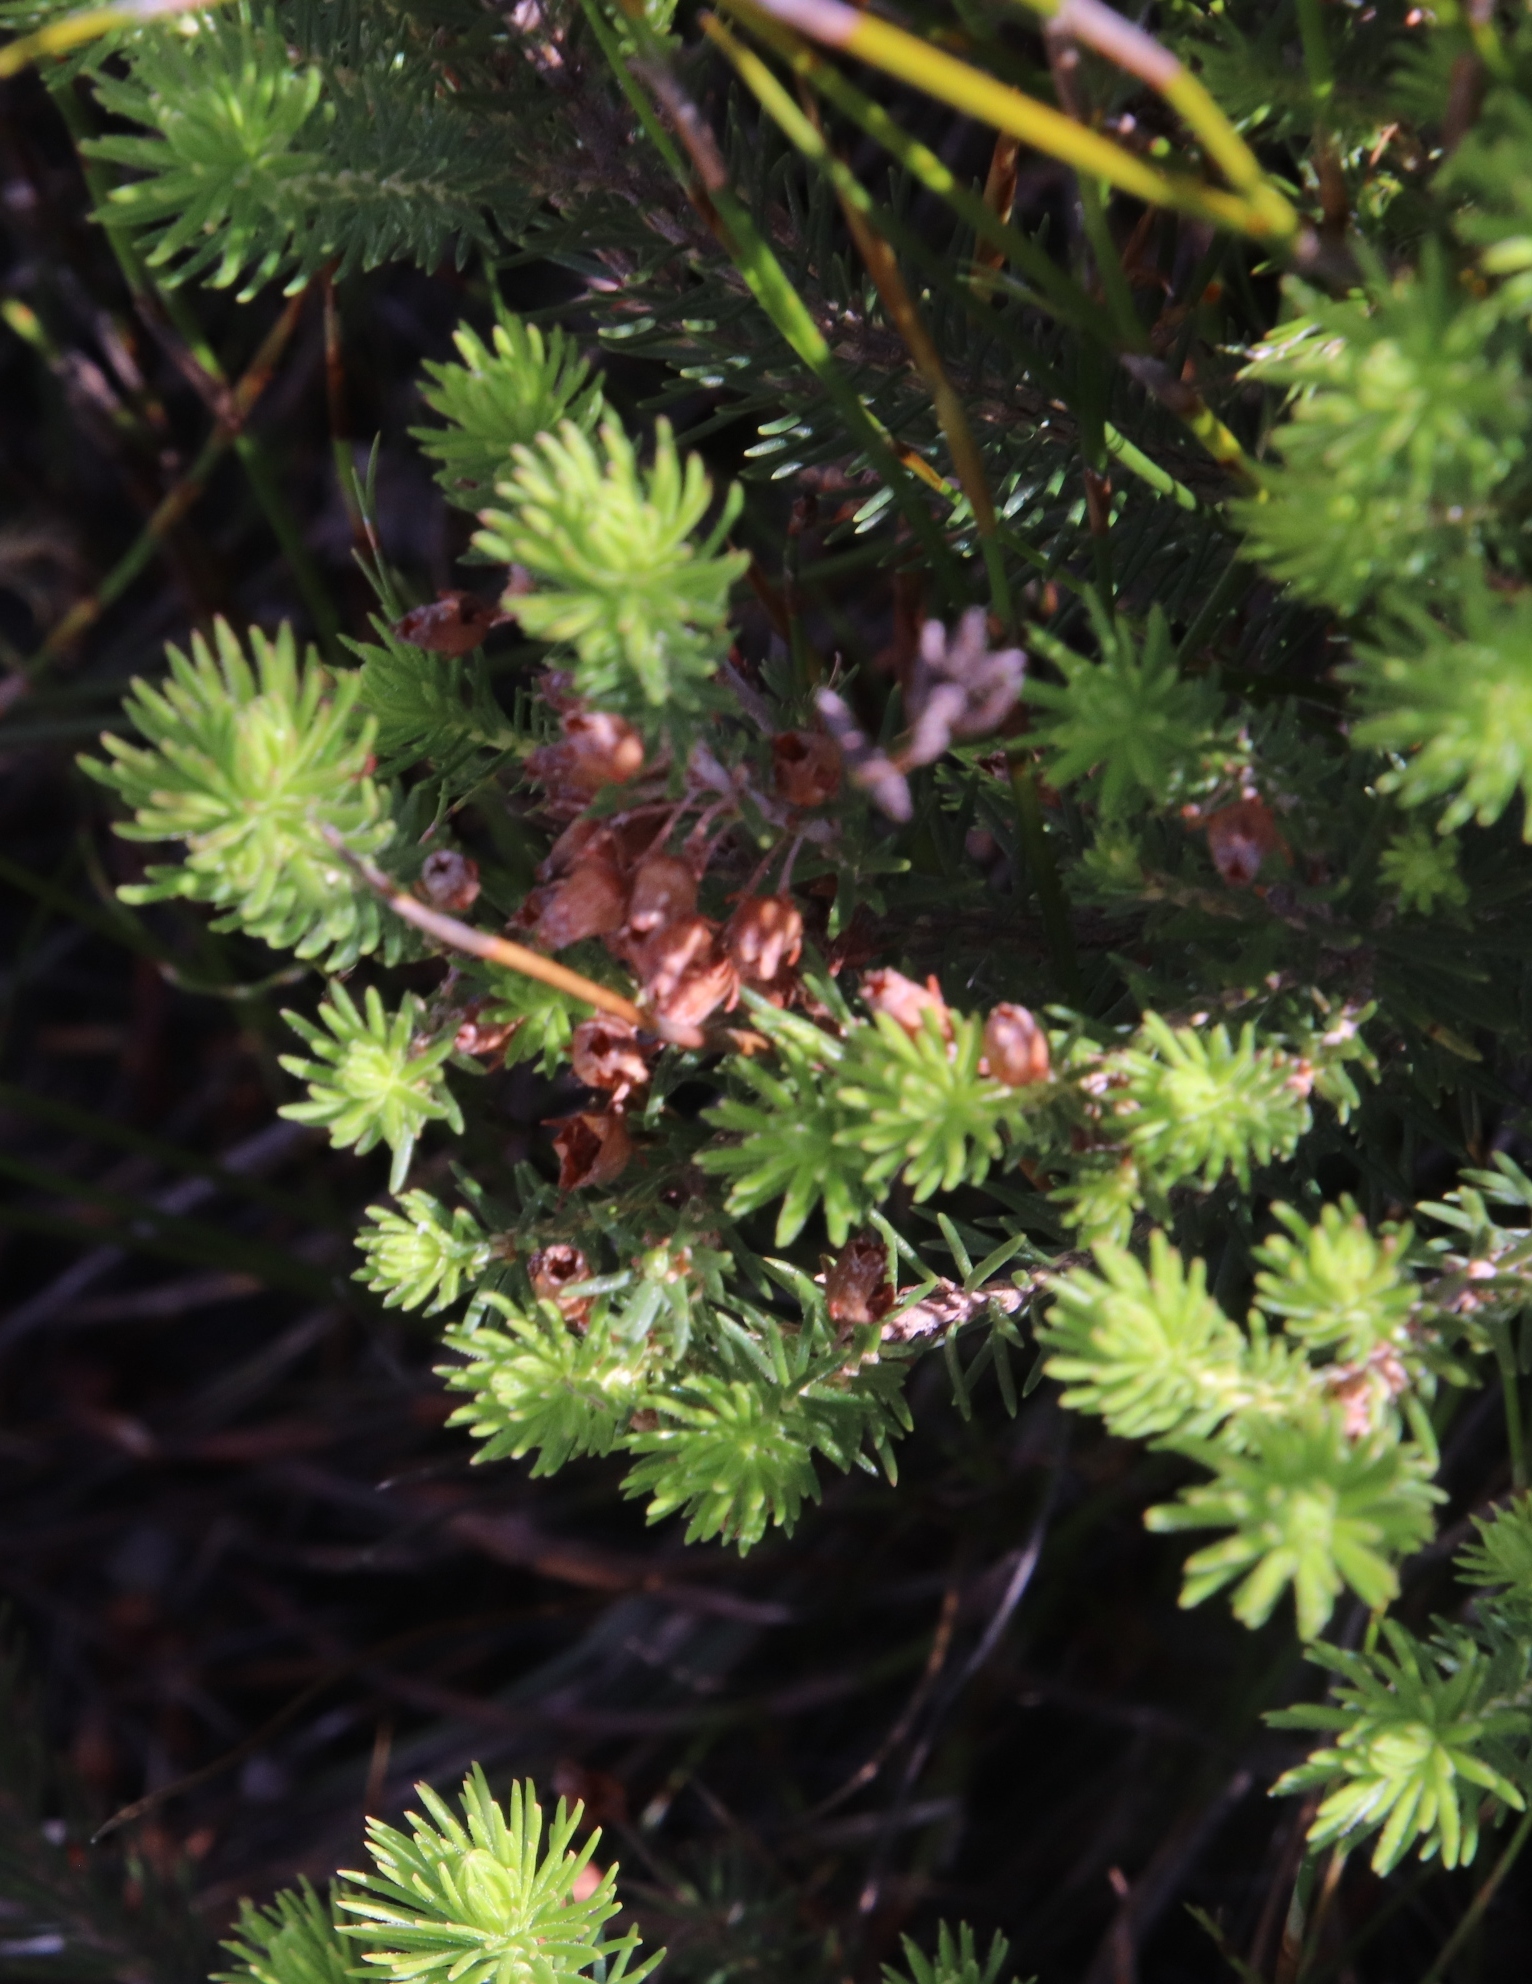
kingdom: Plantae
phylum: Tracheophyta
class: Magnoliopsida
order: Ericales
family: Ericaceae
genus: Erica
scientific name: Erica phillipsii
